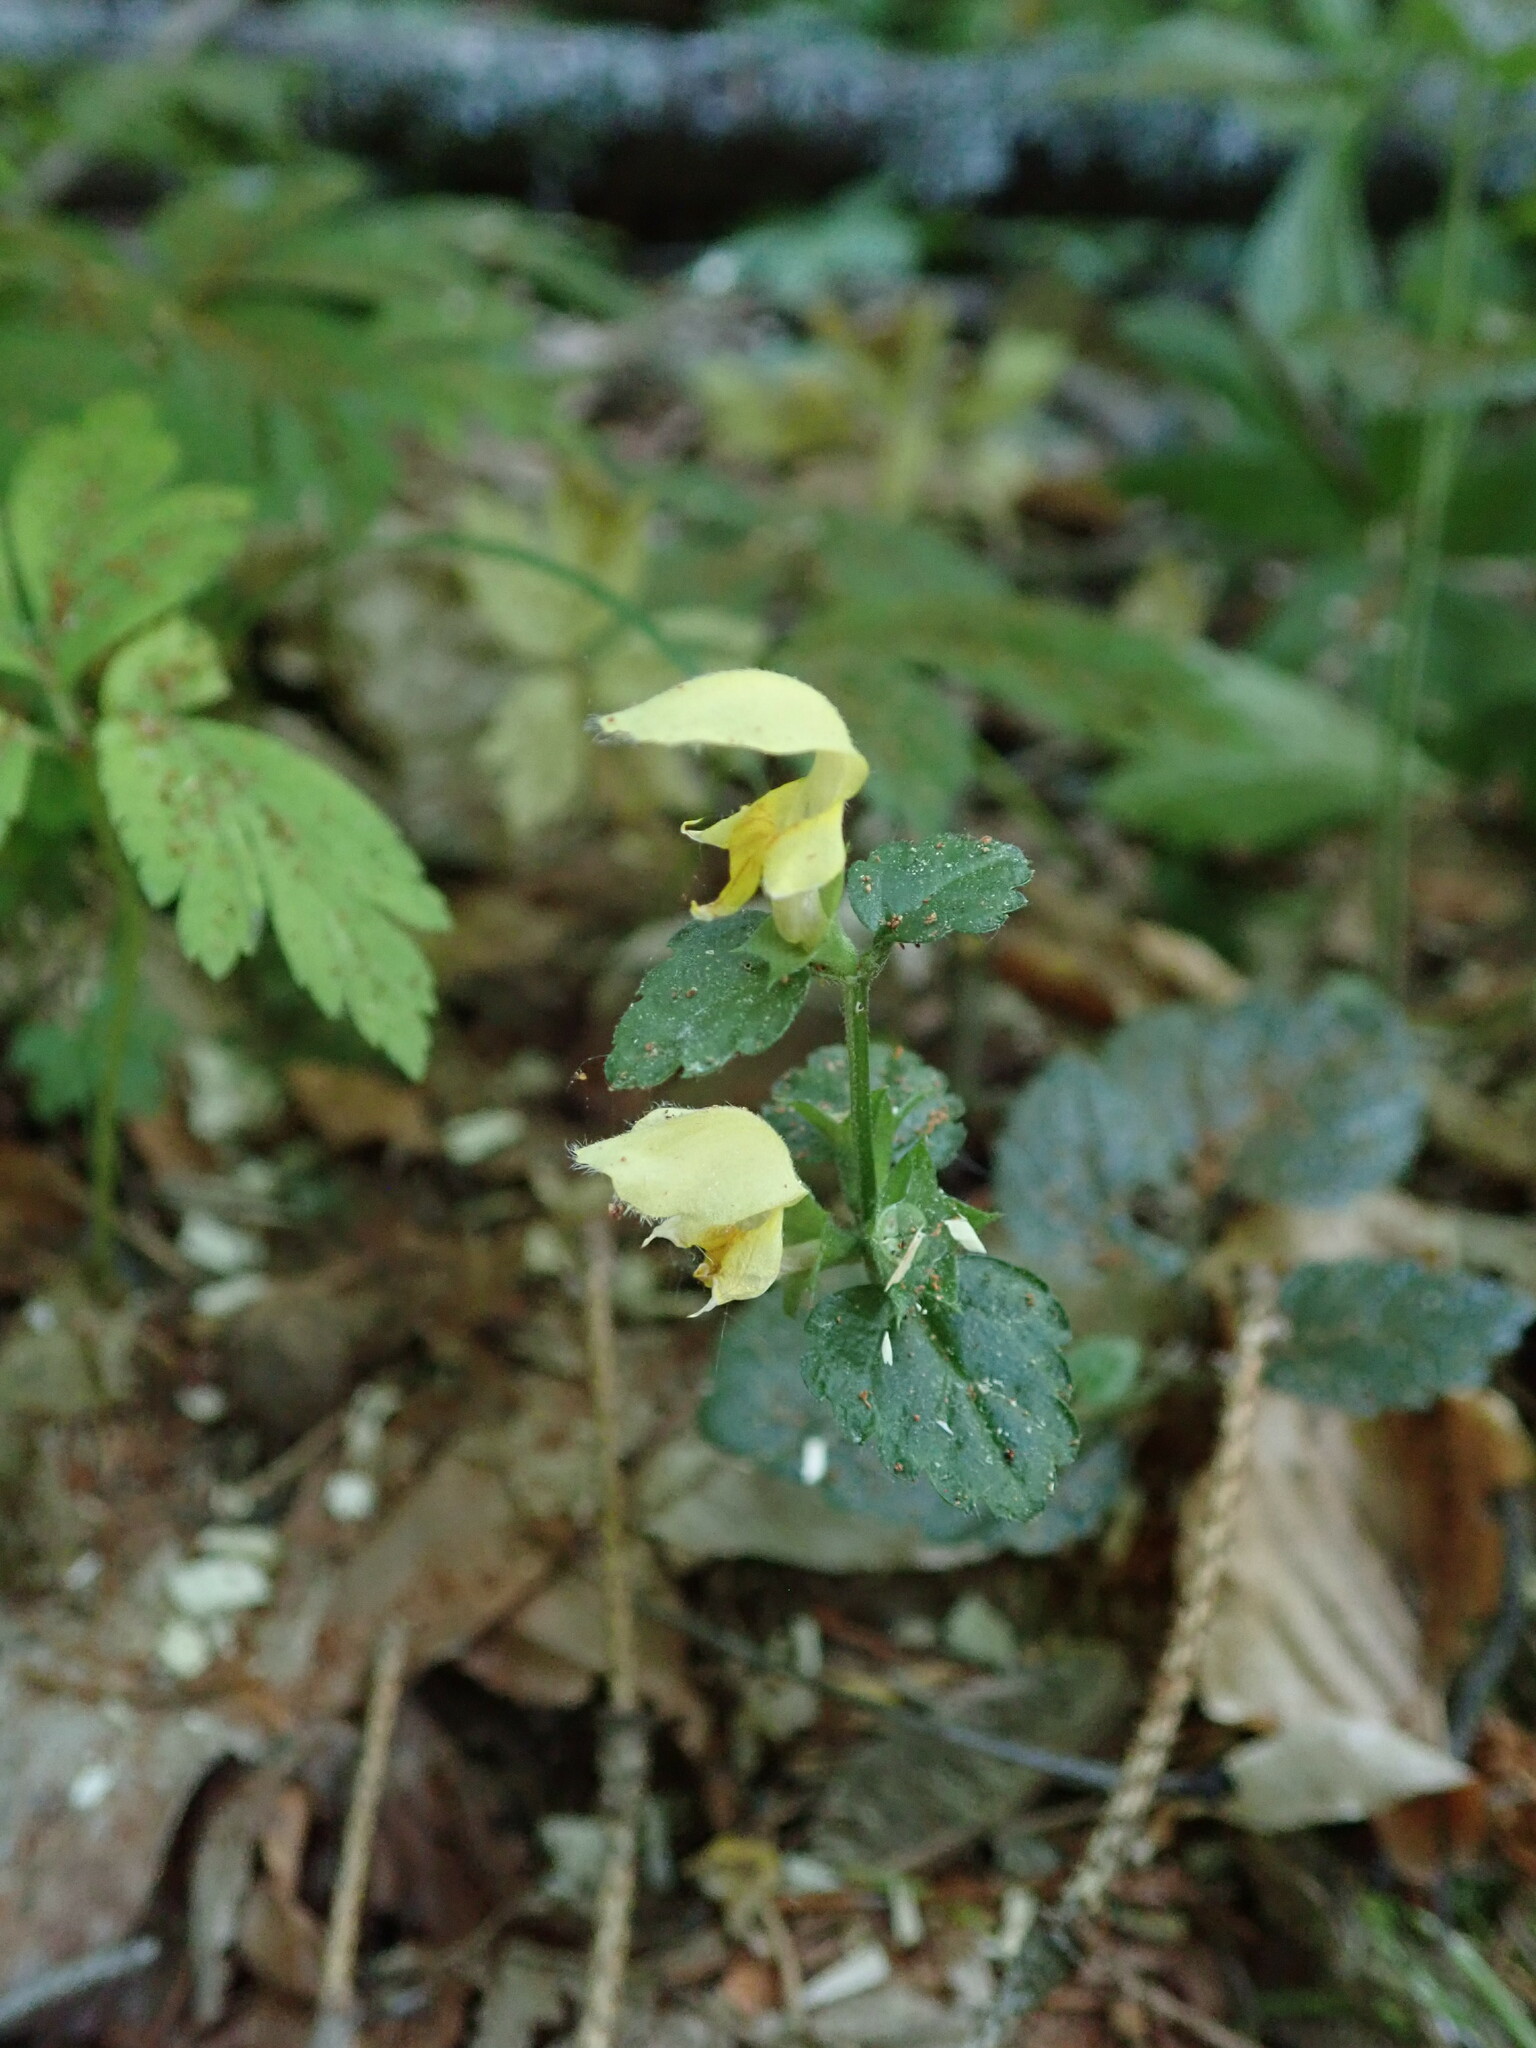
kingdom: Plantae
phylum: Tracheophyta
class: Magnoliopsida
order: Lamiales
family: Lamiaceae
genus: Lamium
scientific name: Lamium galeobdolon
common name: Yellow archangel
